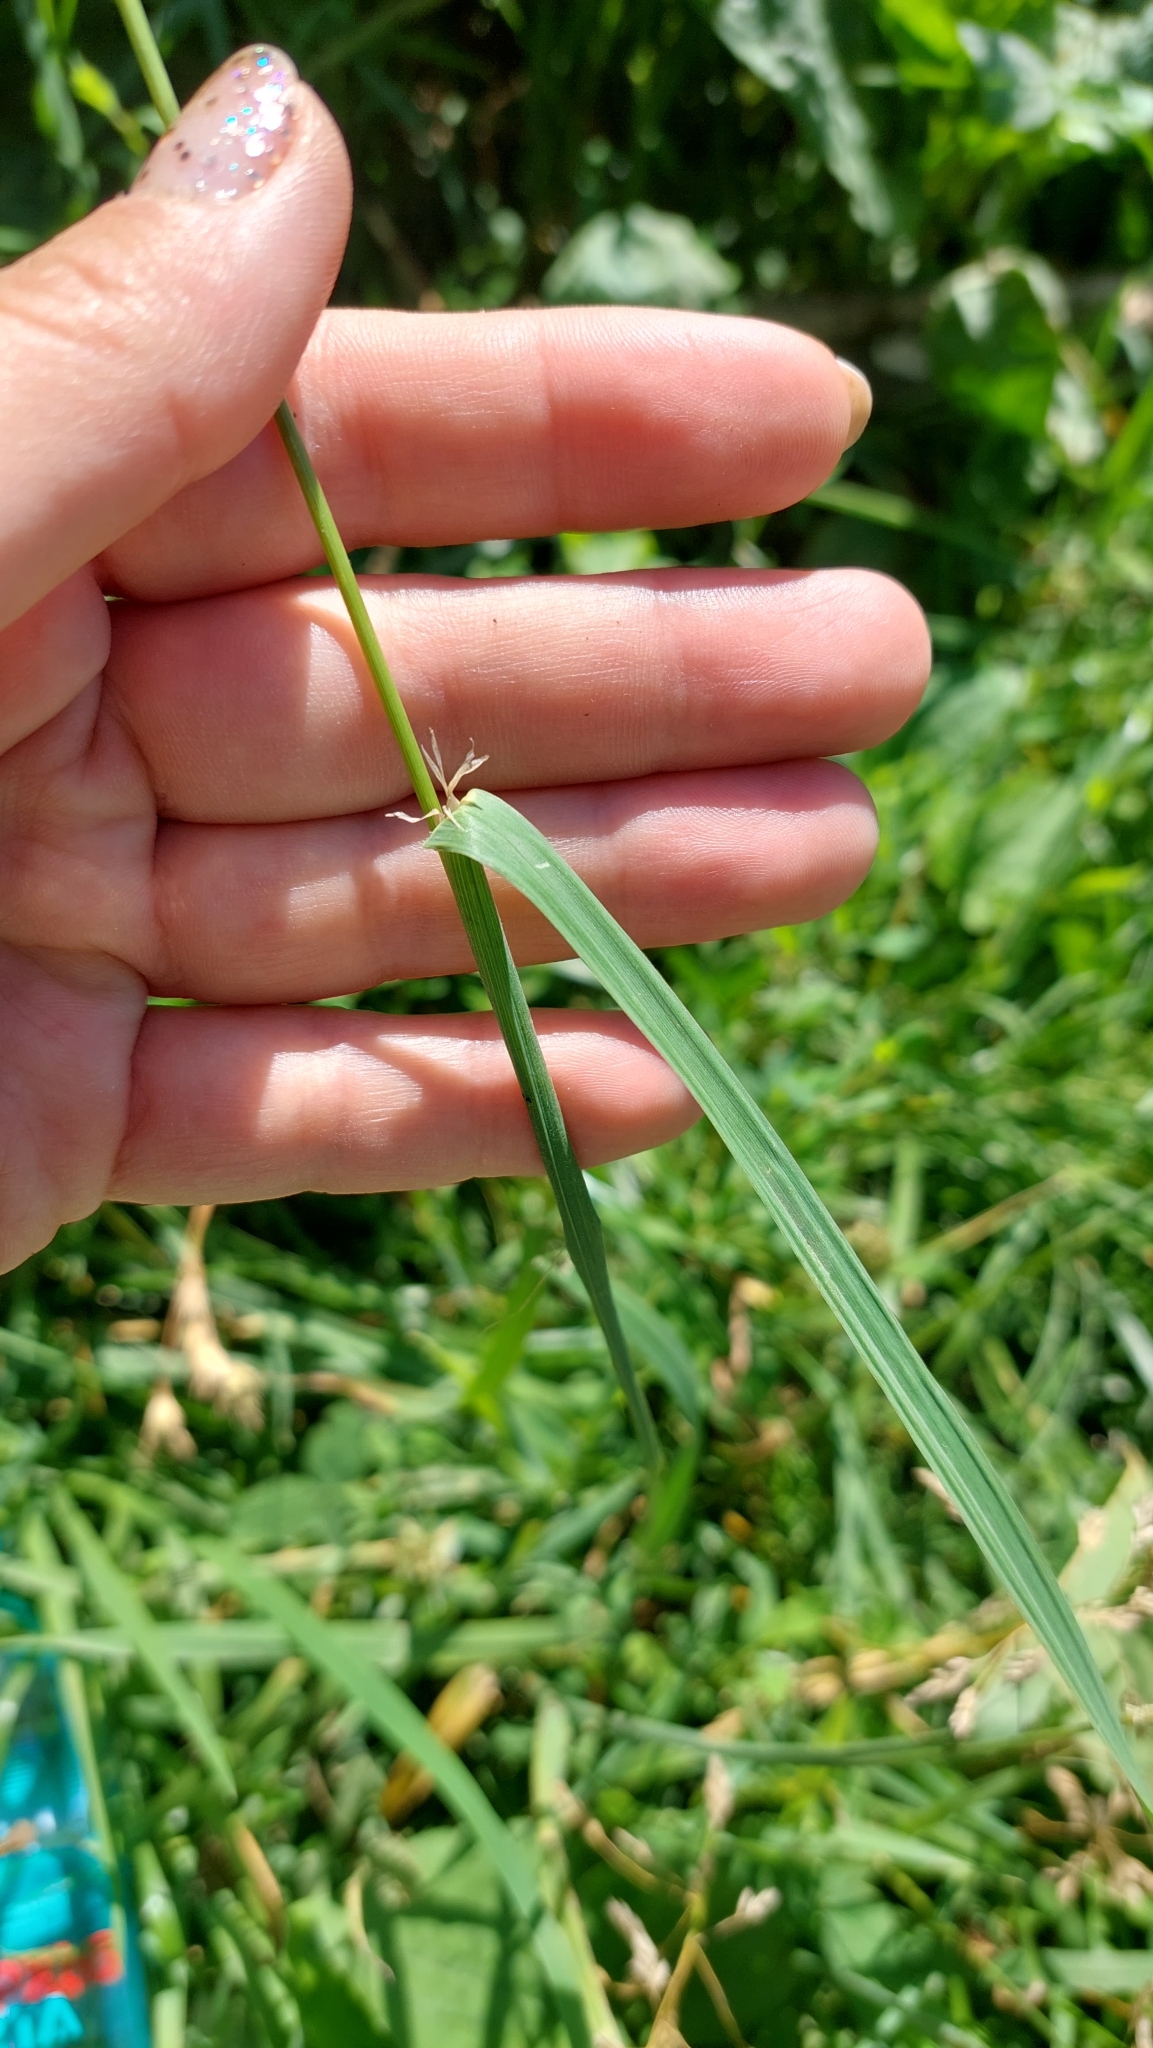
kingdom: Plantae
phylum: Tracheophyta
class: Liliopsida
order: Poales
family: Poaceae
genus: Dactylis
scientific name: Dactylis glomerata
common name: Orchardgrass
